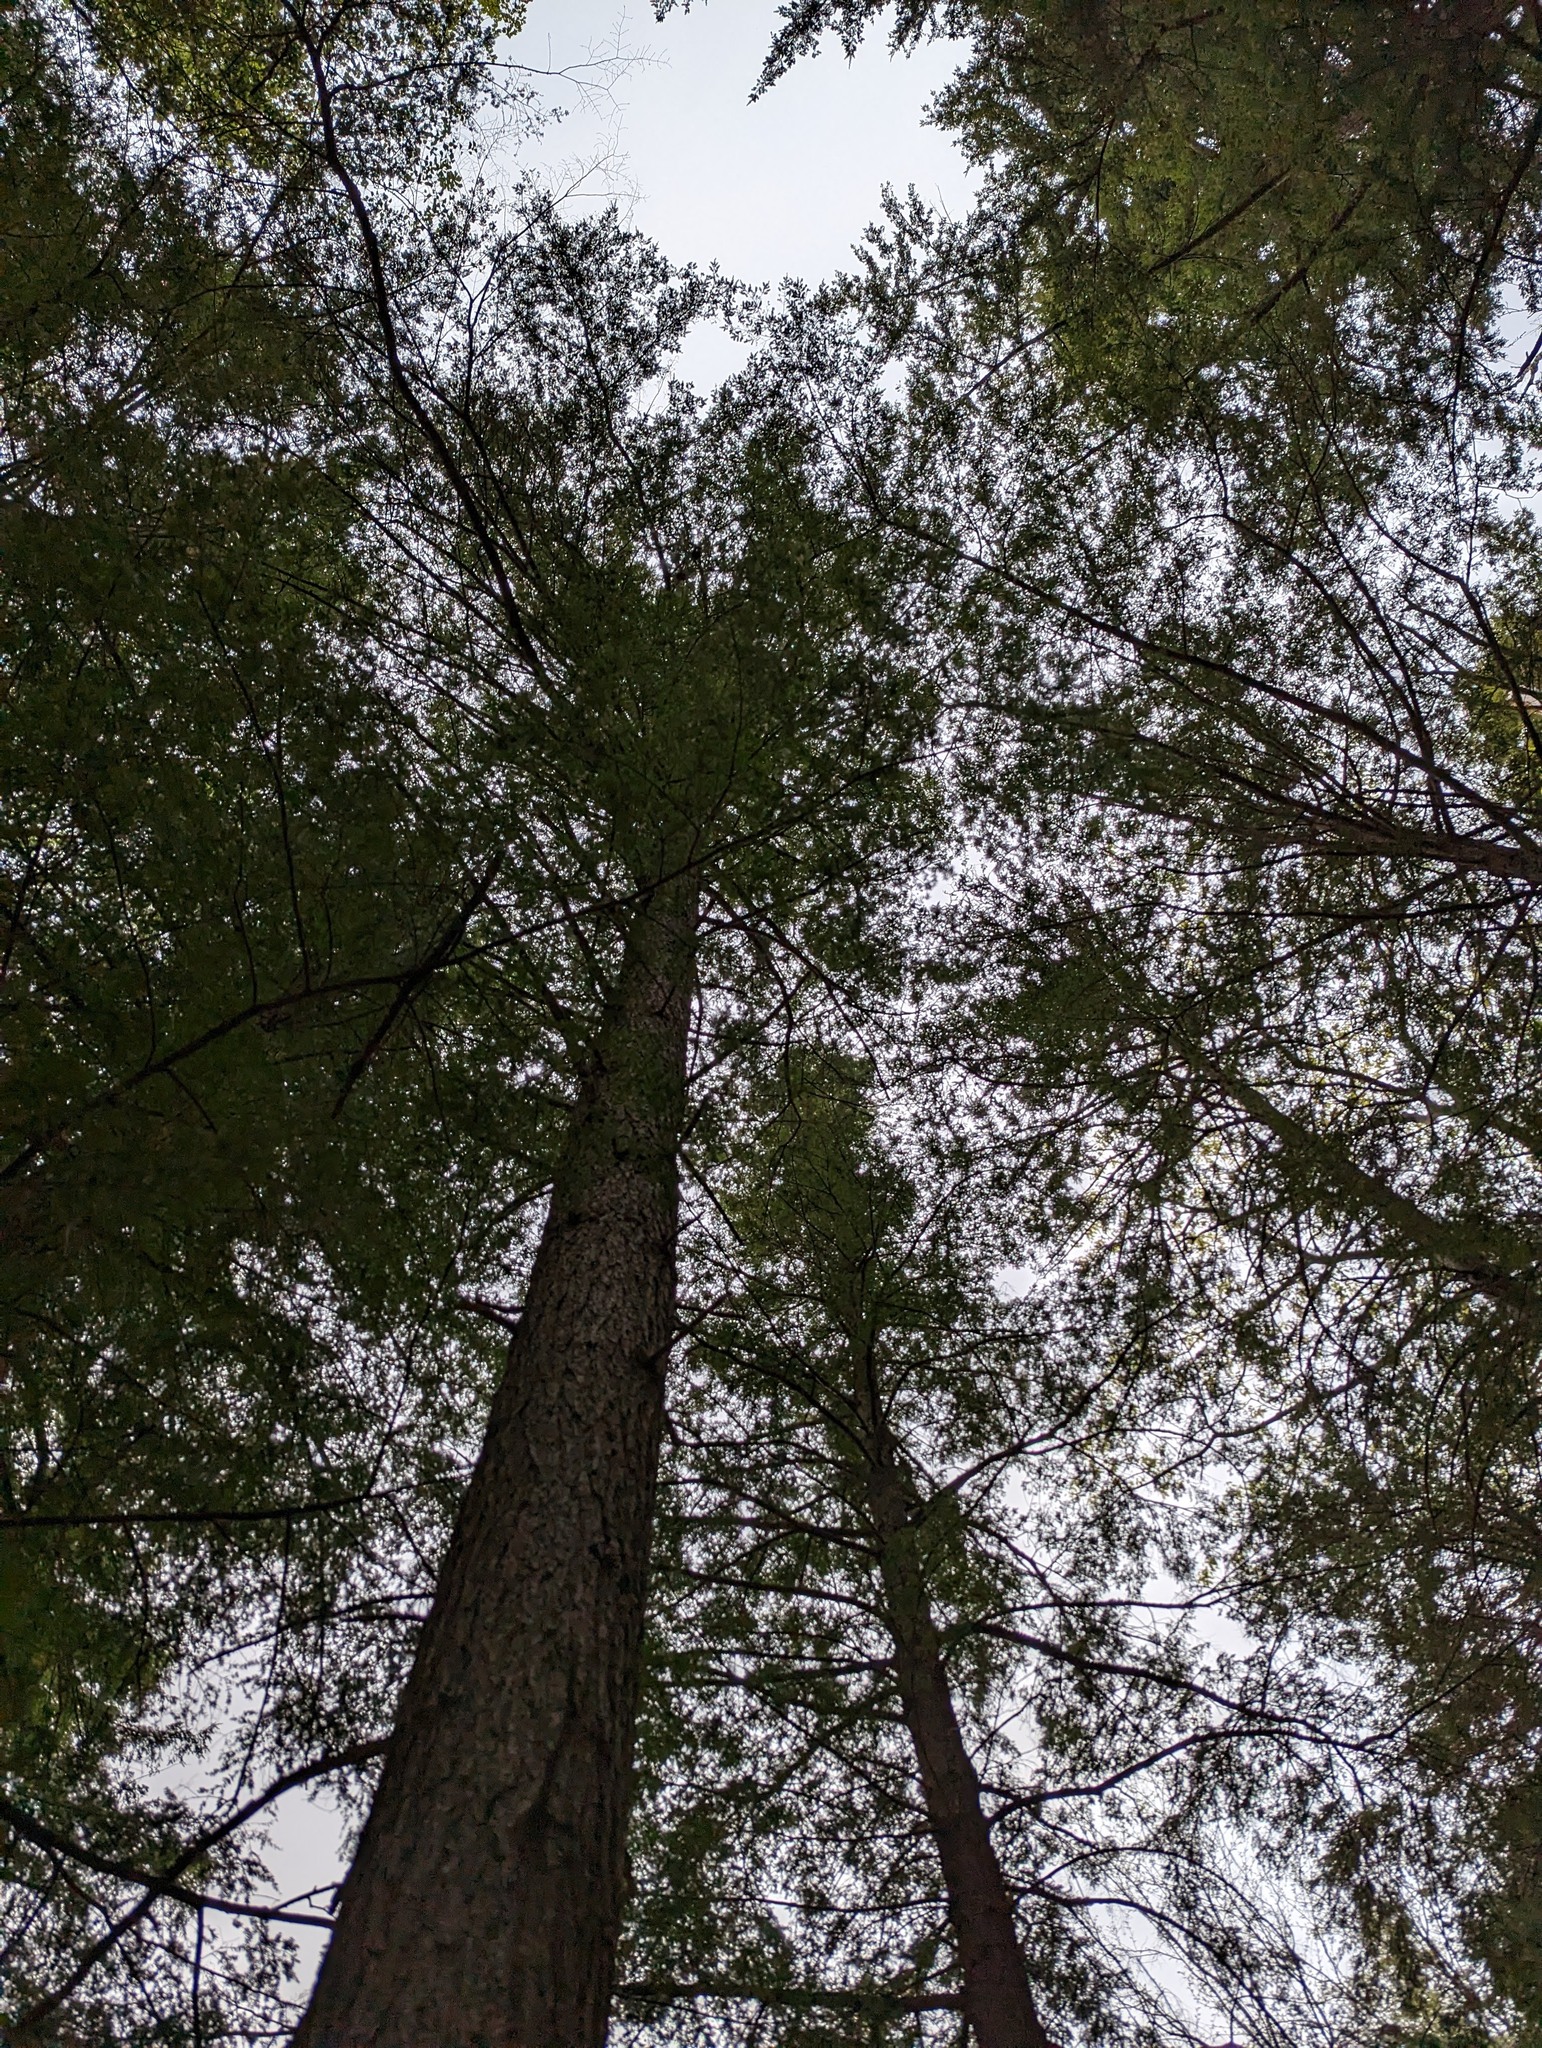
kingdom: Plantae
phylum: Tracheophyta
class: Pinopsida
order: Pinales
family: Pinaceae
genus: Tsuga
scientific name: Tsuga canadensis
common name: Eastern hemlock
